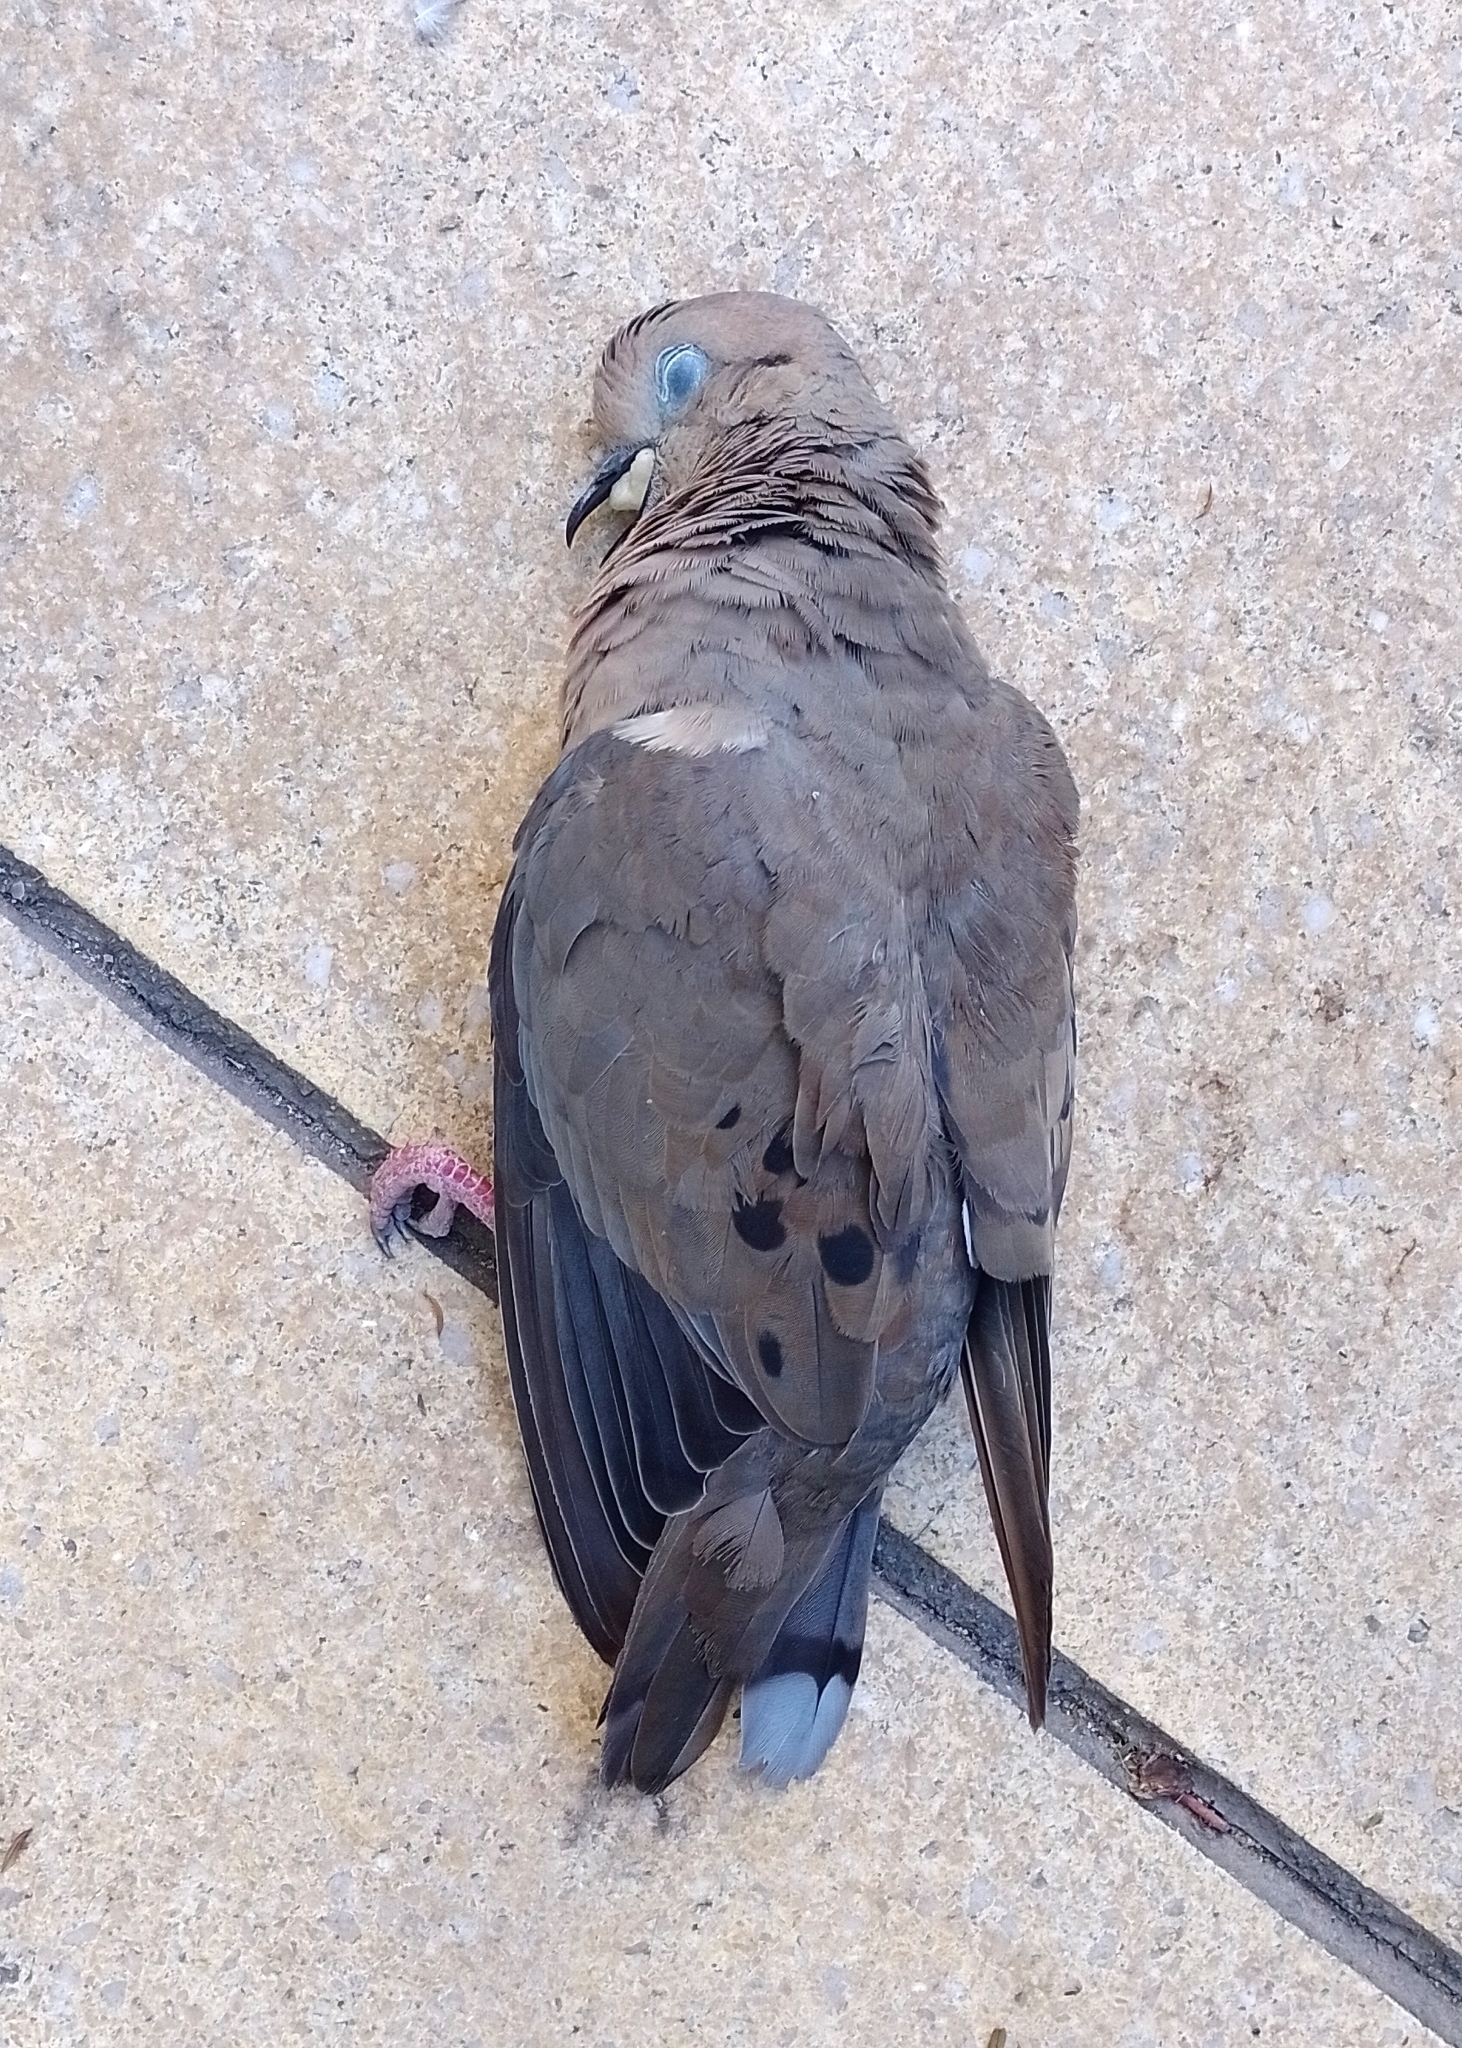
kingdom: Animalia
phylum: Chordata
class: Aves
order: Columbiformes
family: Columbidae
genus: Zenaida
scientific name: Zenaida auriculata
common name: Eared dove
